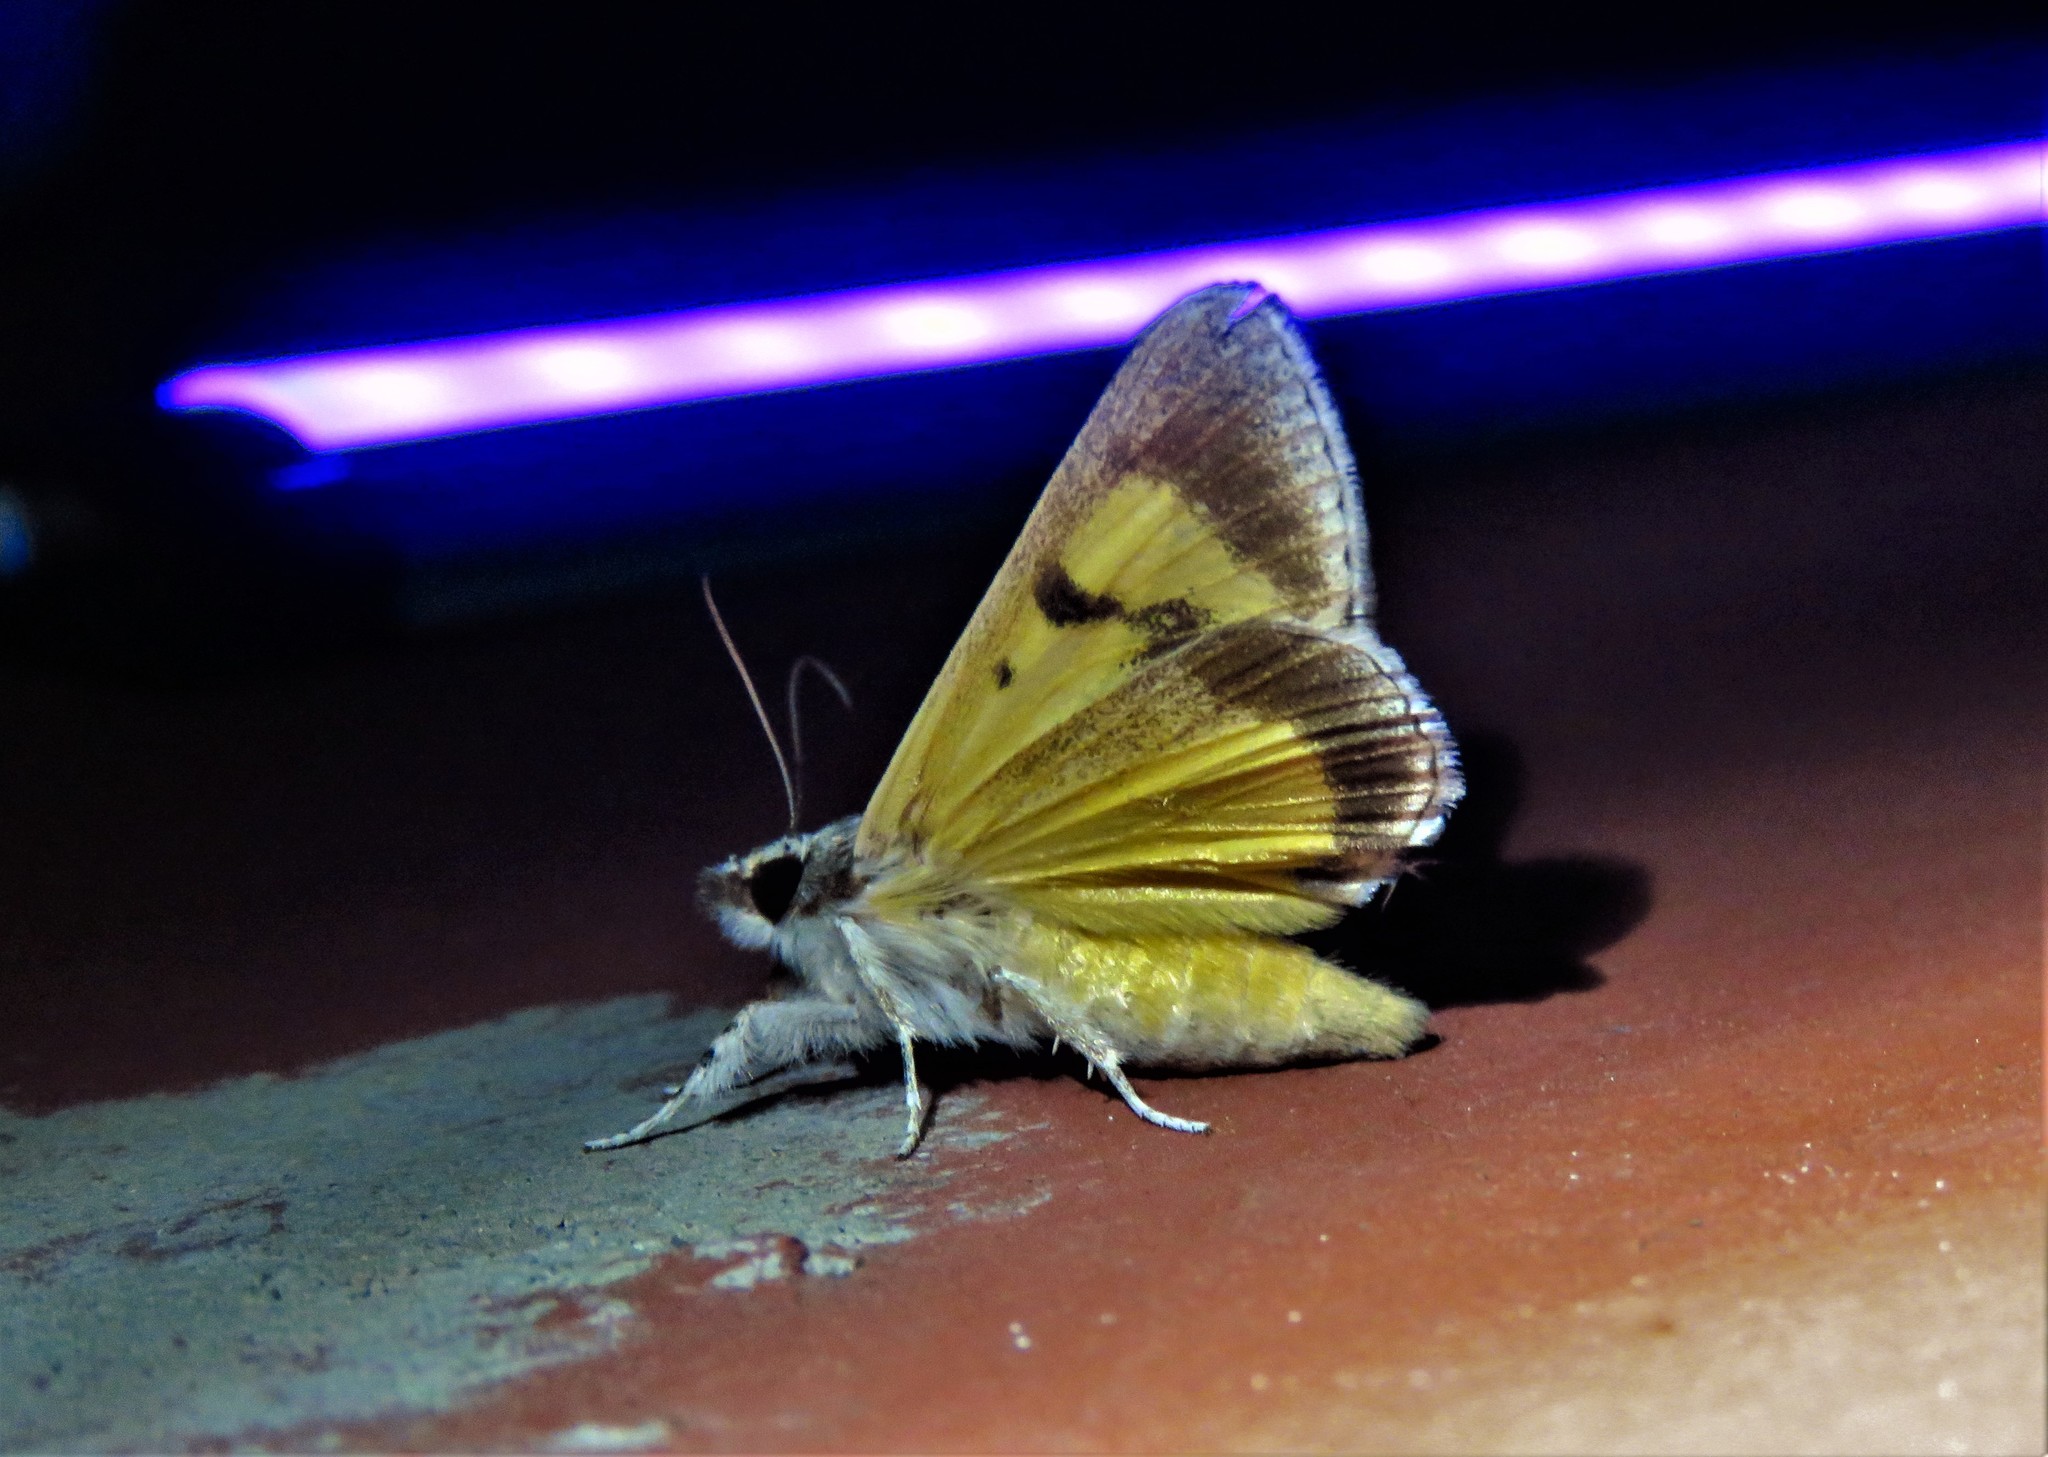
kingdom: Animalia
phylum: Arthropoda
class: Insecta
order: Lepidoptera
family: Noctuidae
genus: Euscirrhopterus
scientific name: Euscirrhopterus poeyi
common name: Cutworm moth
